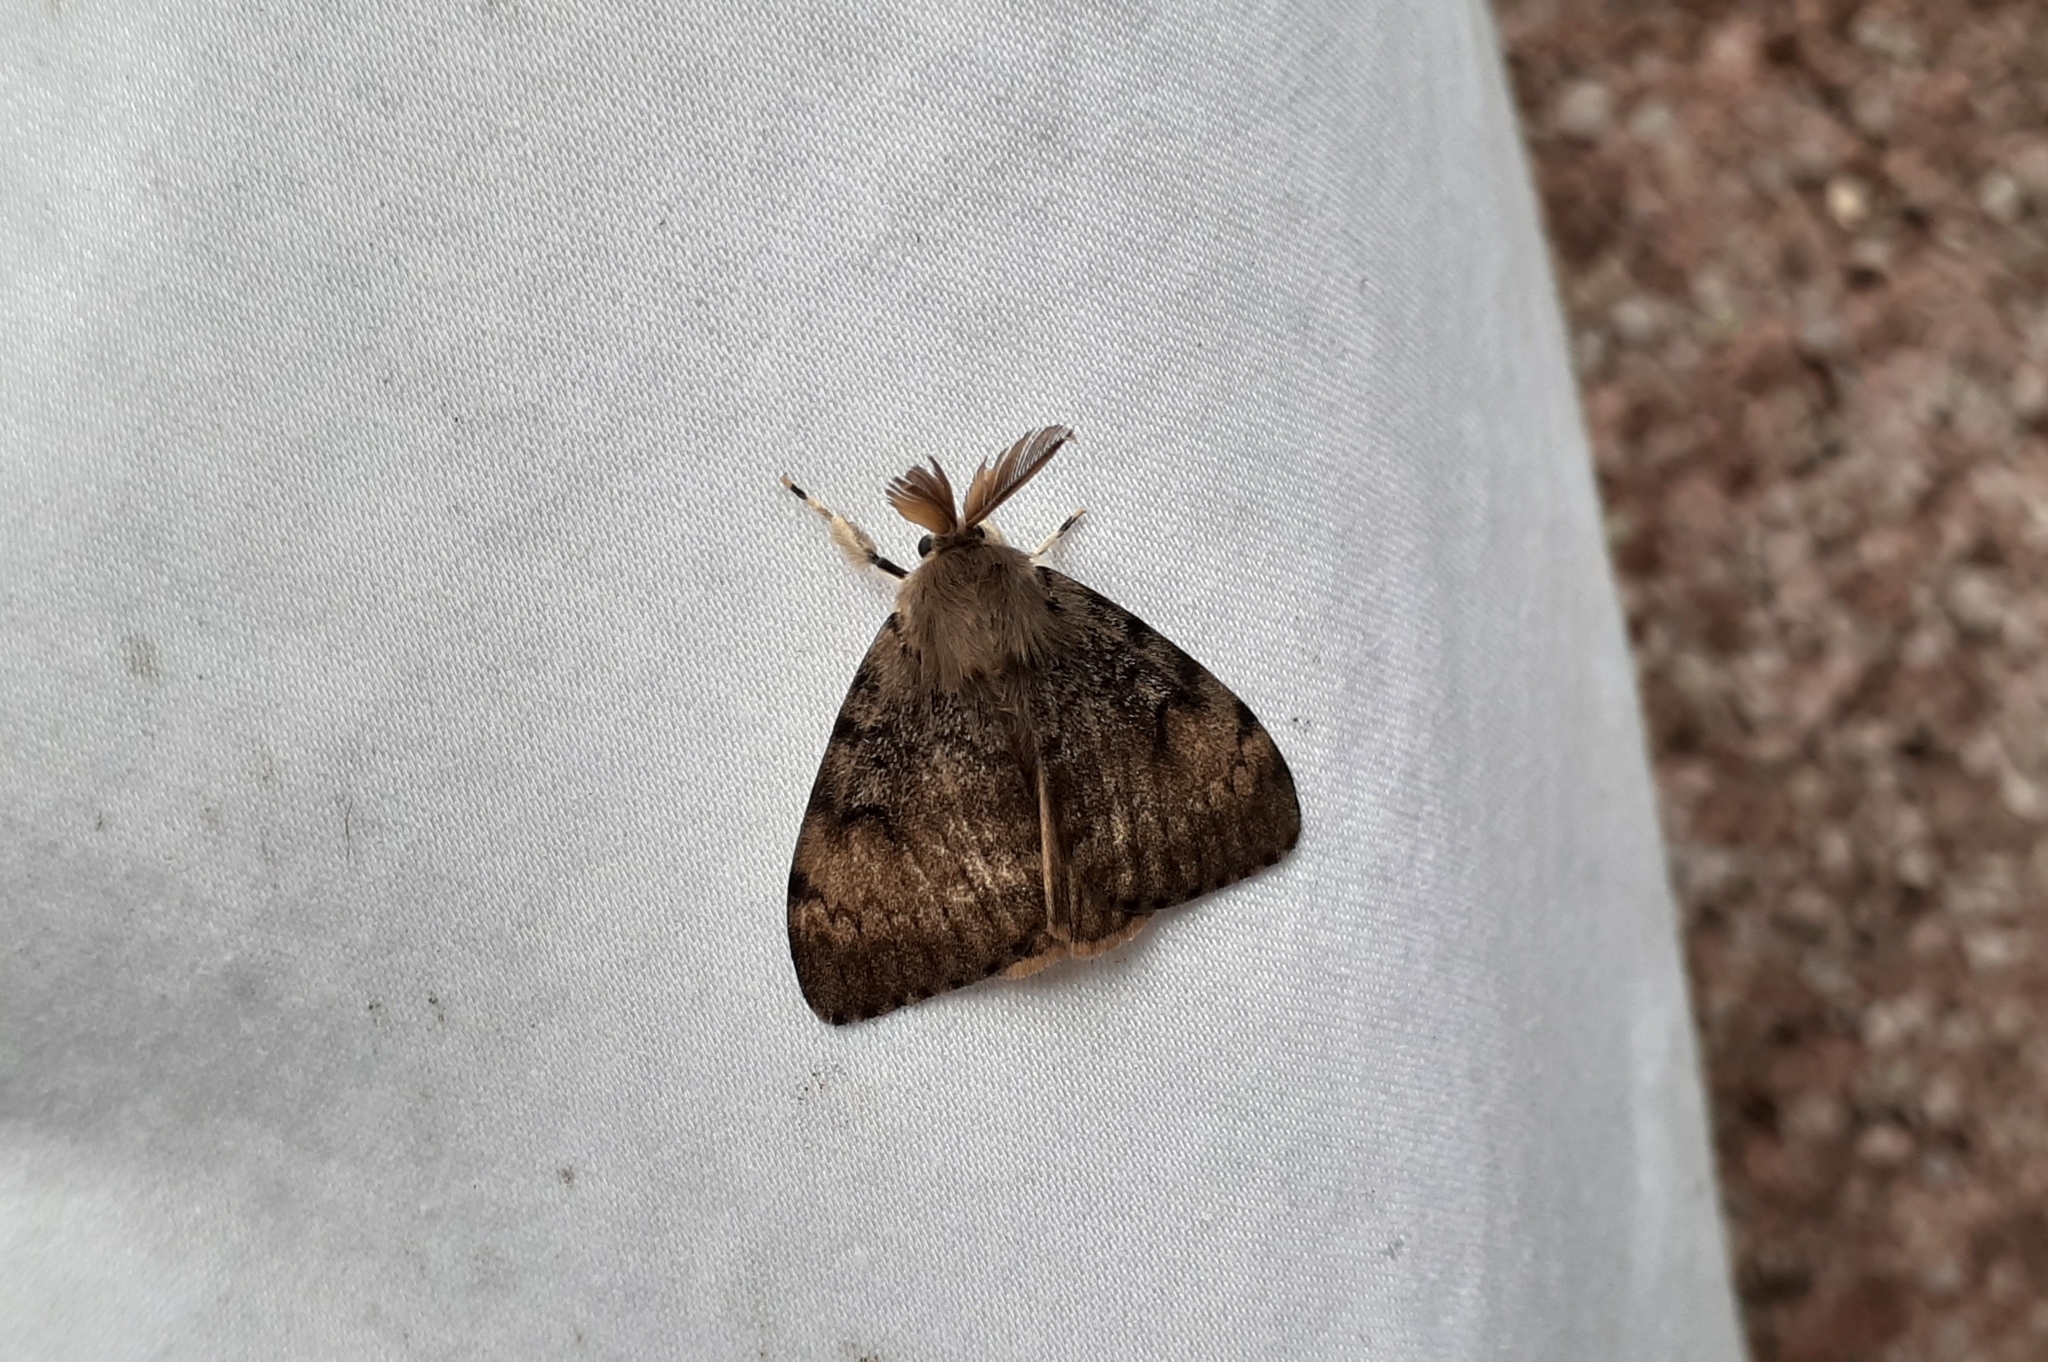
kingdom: Animalia
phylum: Arthropoda
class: Insecta
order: Lepidoptera
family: Erebidae
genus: Lymantria
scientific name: Lymantria dispar
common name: Gypsy moth
